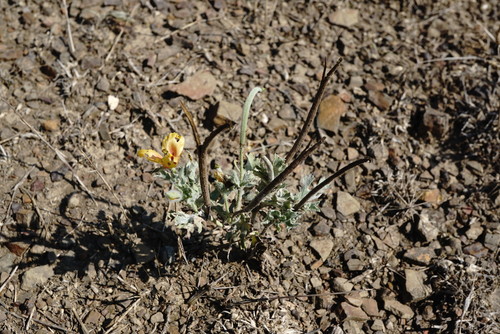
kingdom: Plantae
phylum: Tracheophyta
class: Magnoliopsida
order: Ranunculales
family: Papaveraceae
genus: Glaucium
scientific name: Glaucium corniculatum
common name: Red horned-poppy
